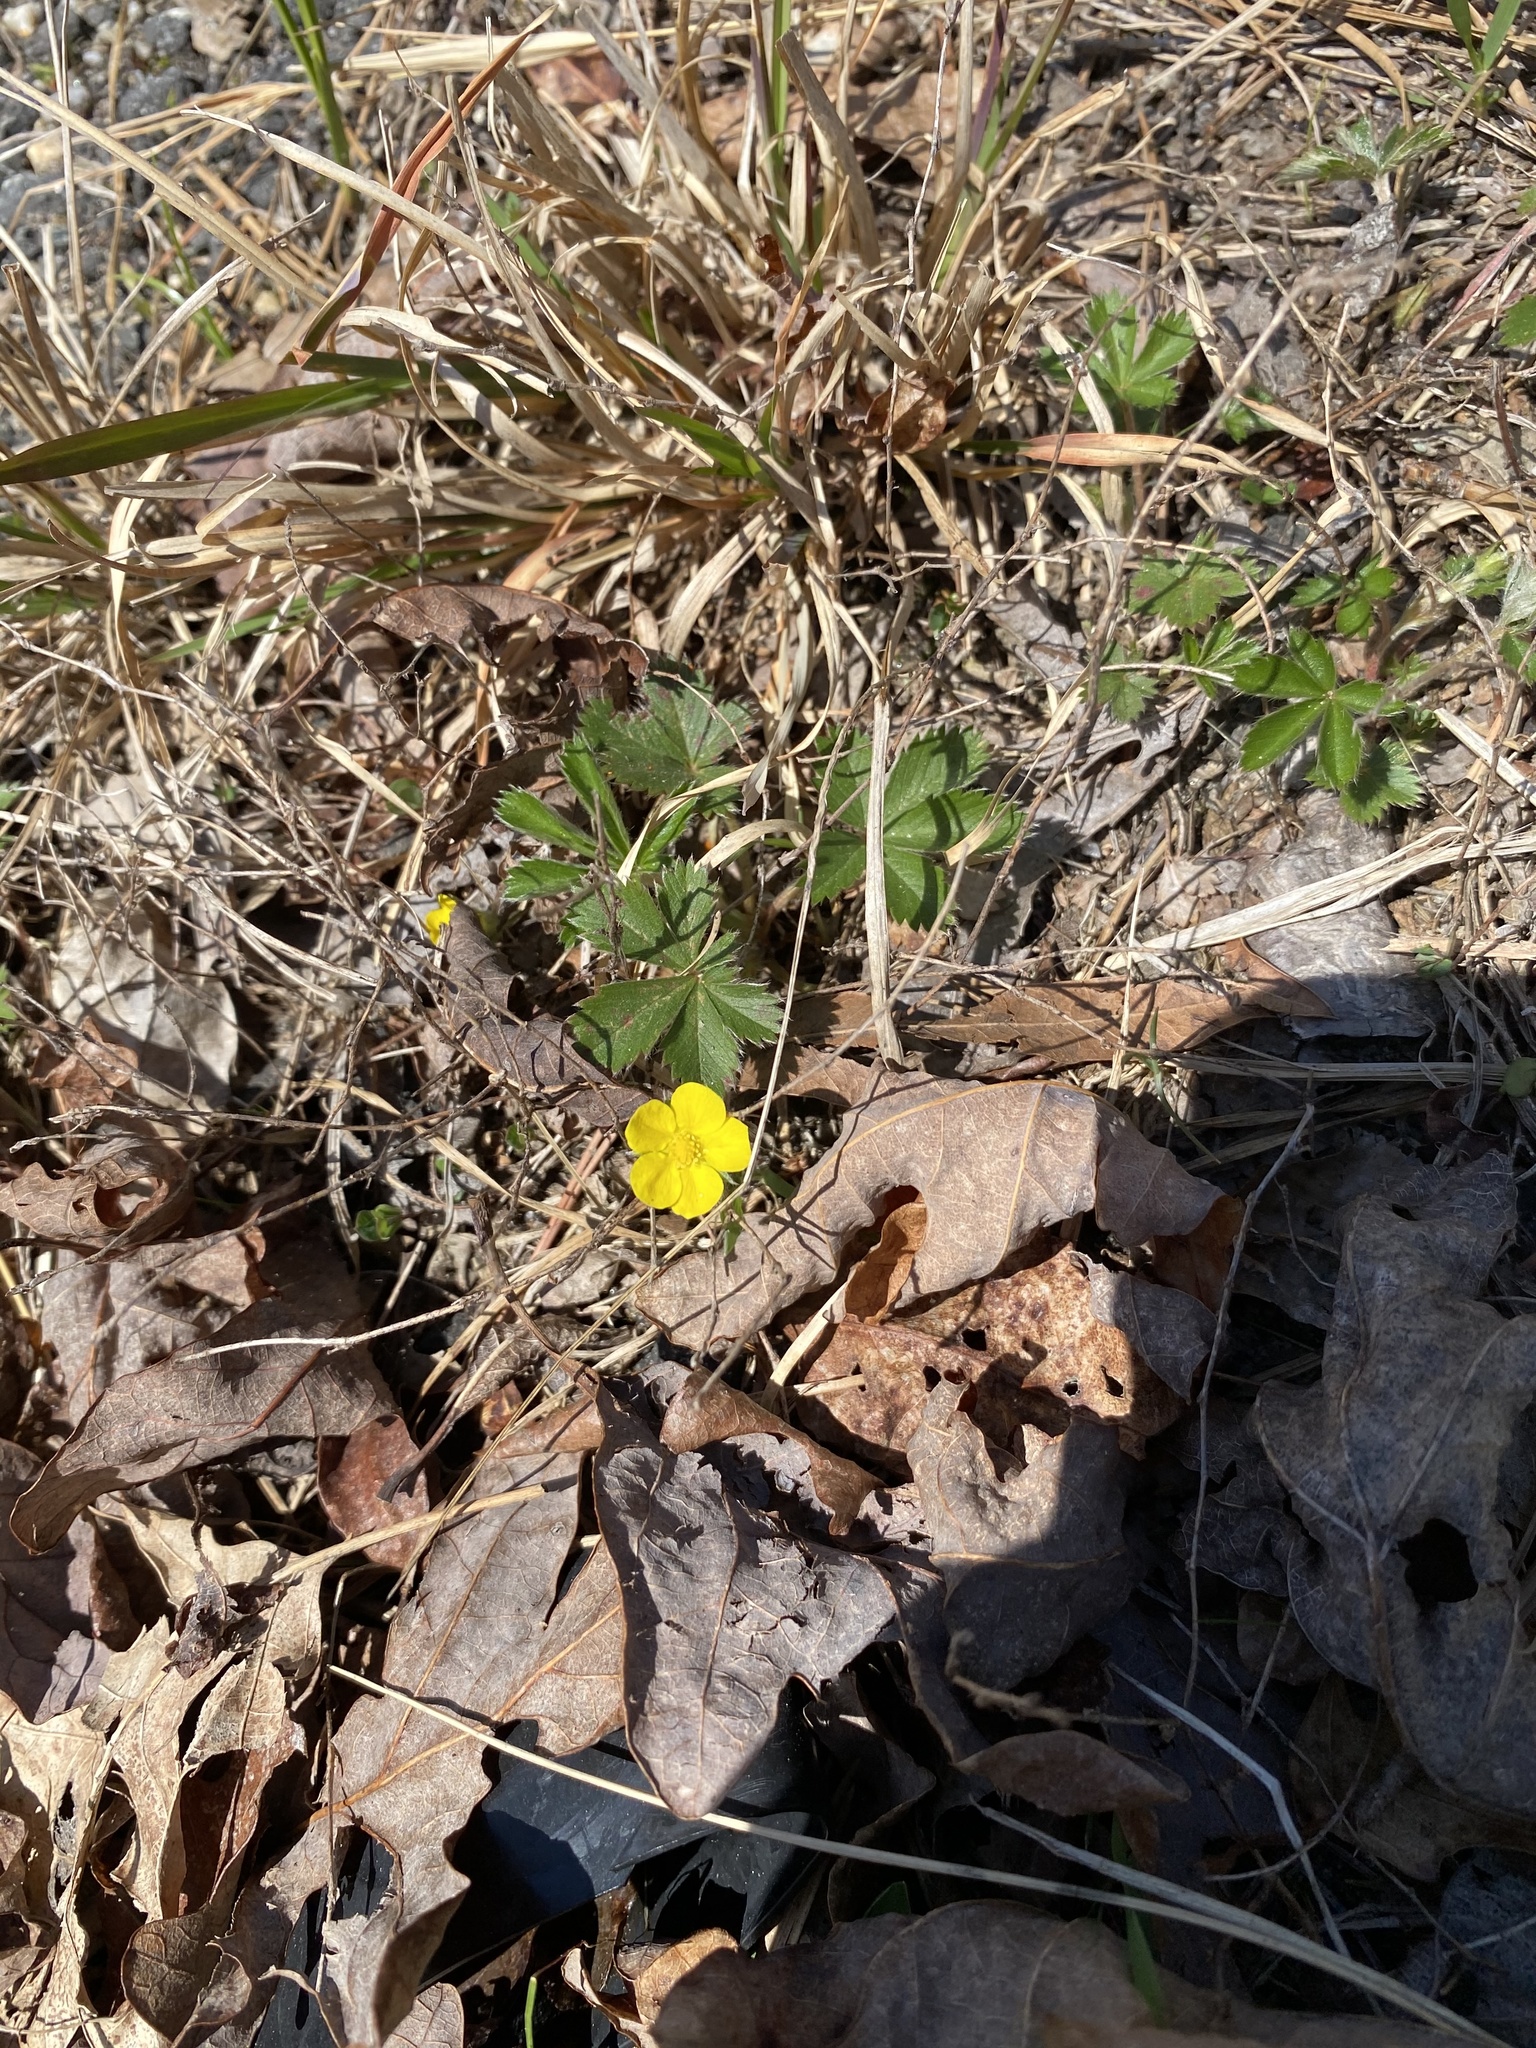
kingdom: Plantae
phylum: Tracheophyta
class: Magnoliopsida
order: Rosales
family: Rosaceae
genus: Potentilla
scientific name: Potentilla canadensis
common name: Canada cinquefoil
